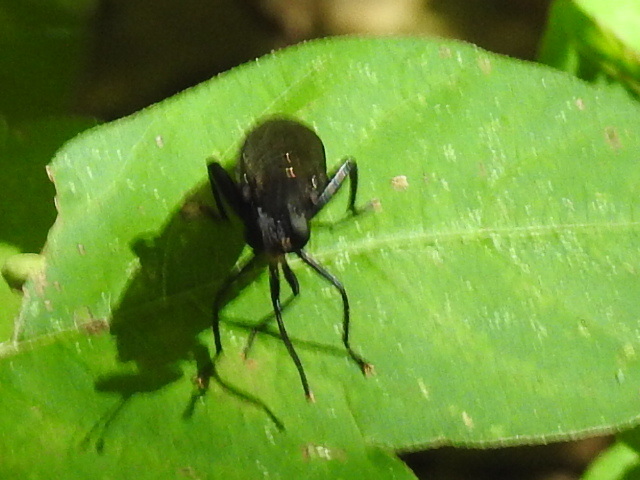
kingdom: Animalia
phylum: Arthropoda
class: Insecta
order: Diptera
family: Mydidae
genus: Mydas
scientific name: Mydas fulvifrons
